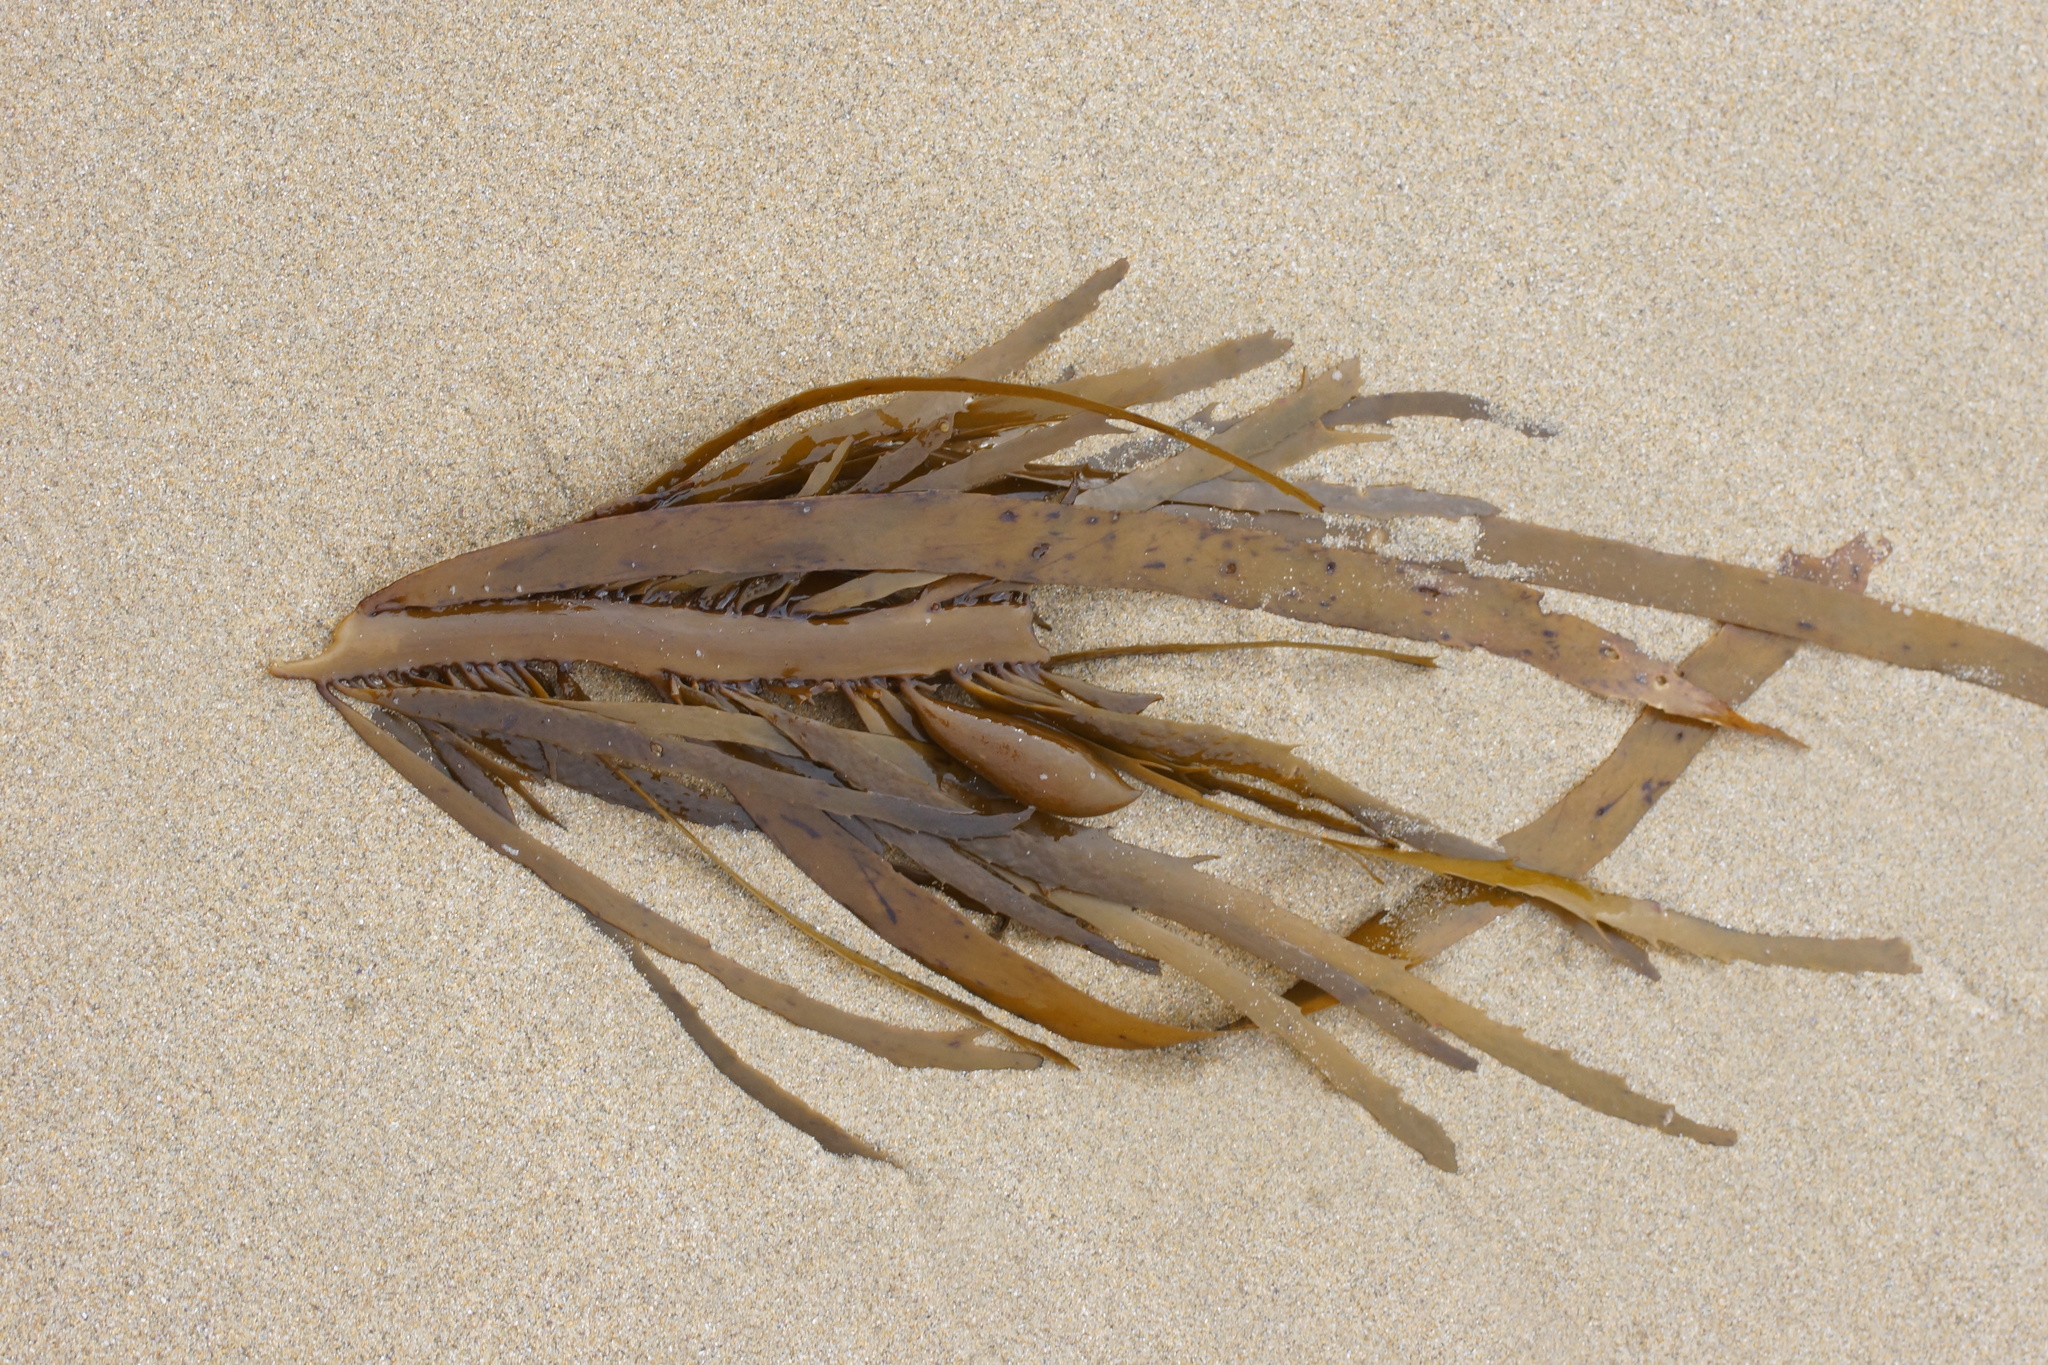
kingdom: Chromista
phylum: Ochrophyta
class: Phaeophyceae
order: Fucales
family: Seirococcaceae
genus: Phyllospora
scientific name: Phyllospora
